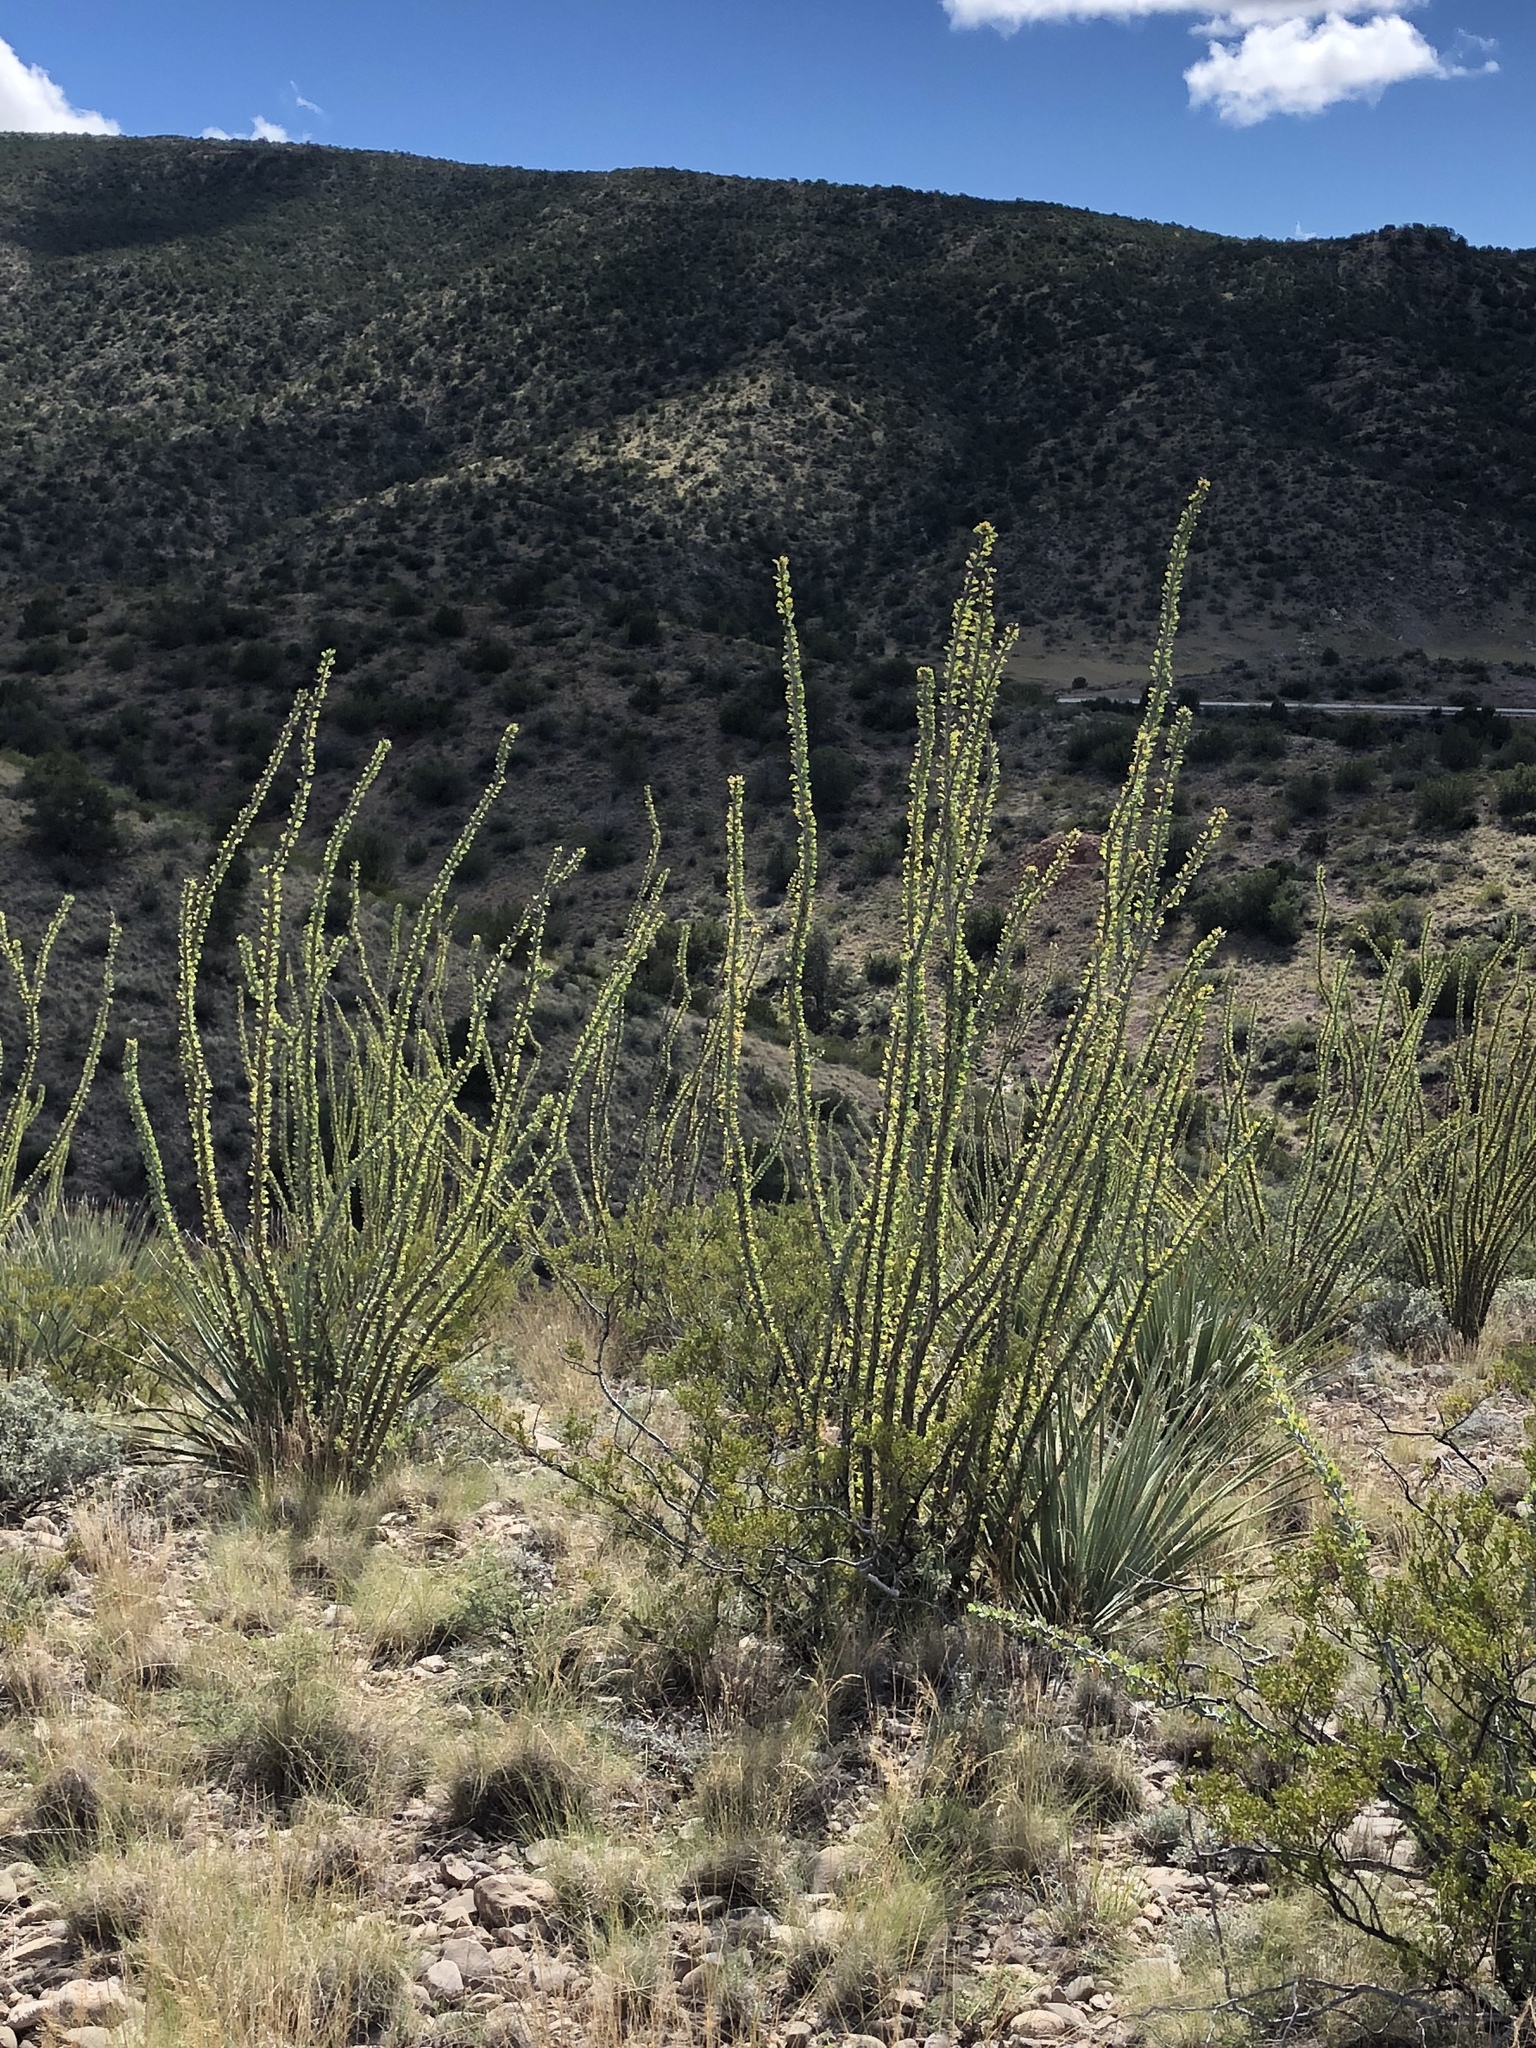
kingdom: Plantae
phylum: Tracheophyta
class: Magnoliopsida
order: Ericales
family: Fouquieriaceae
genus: Fouquieria
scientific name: Fouquieria splendens
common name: Vine-cactus
